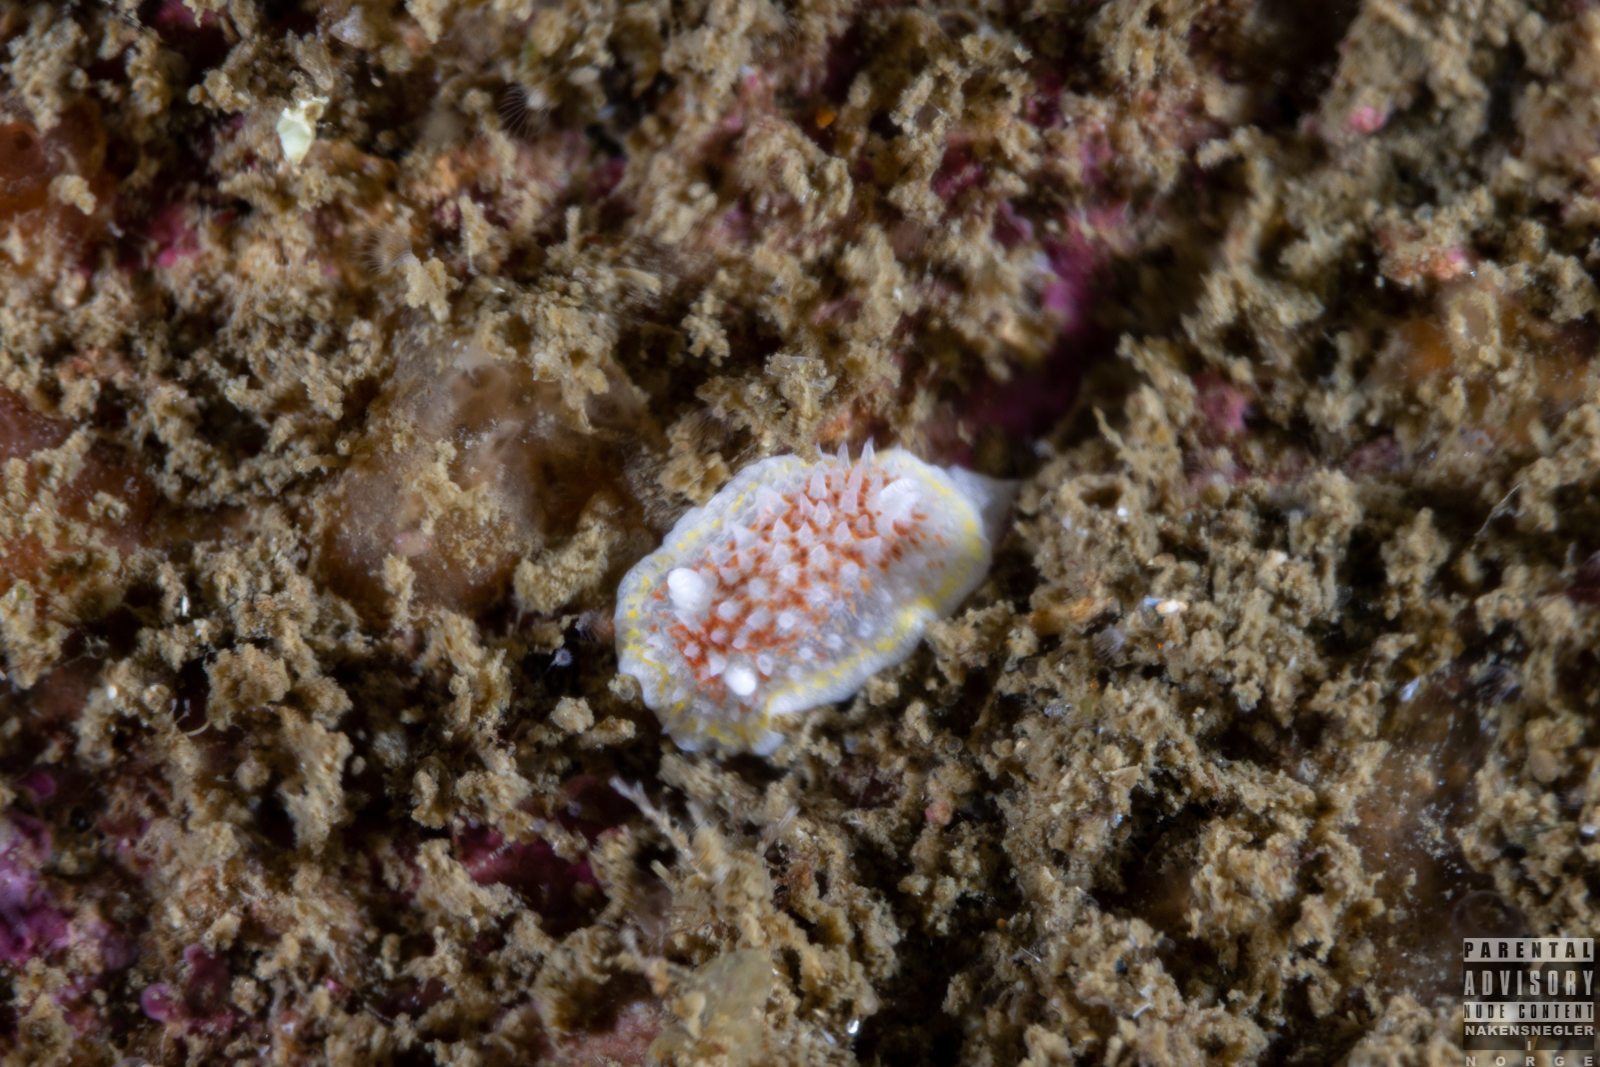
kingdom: Animalia
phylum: Mollusca
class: Gastropoda
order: Nudibranchia
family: Calycidorididae
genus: Diaphorodoris
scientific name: Diaphorodoris luteocincta
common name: Fried egg nudibranch
